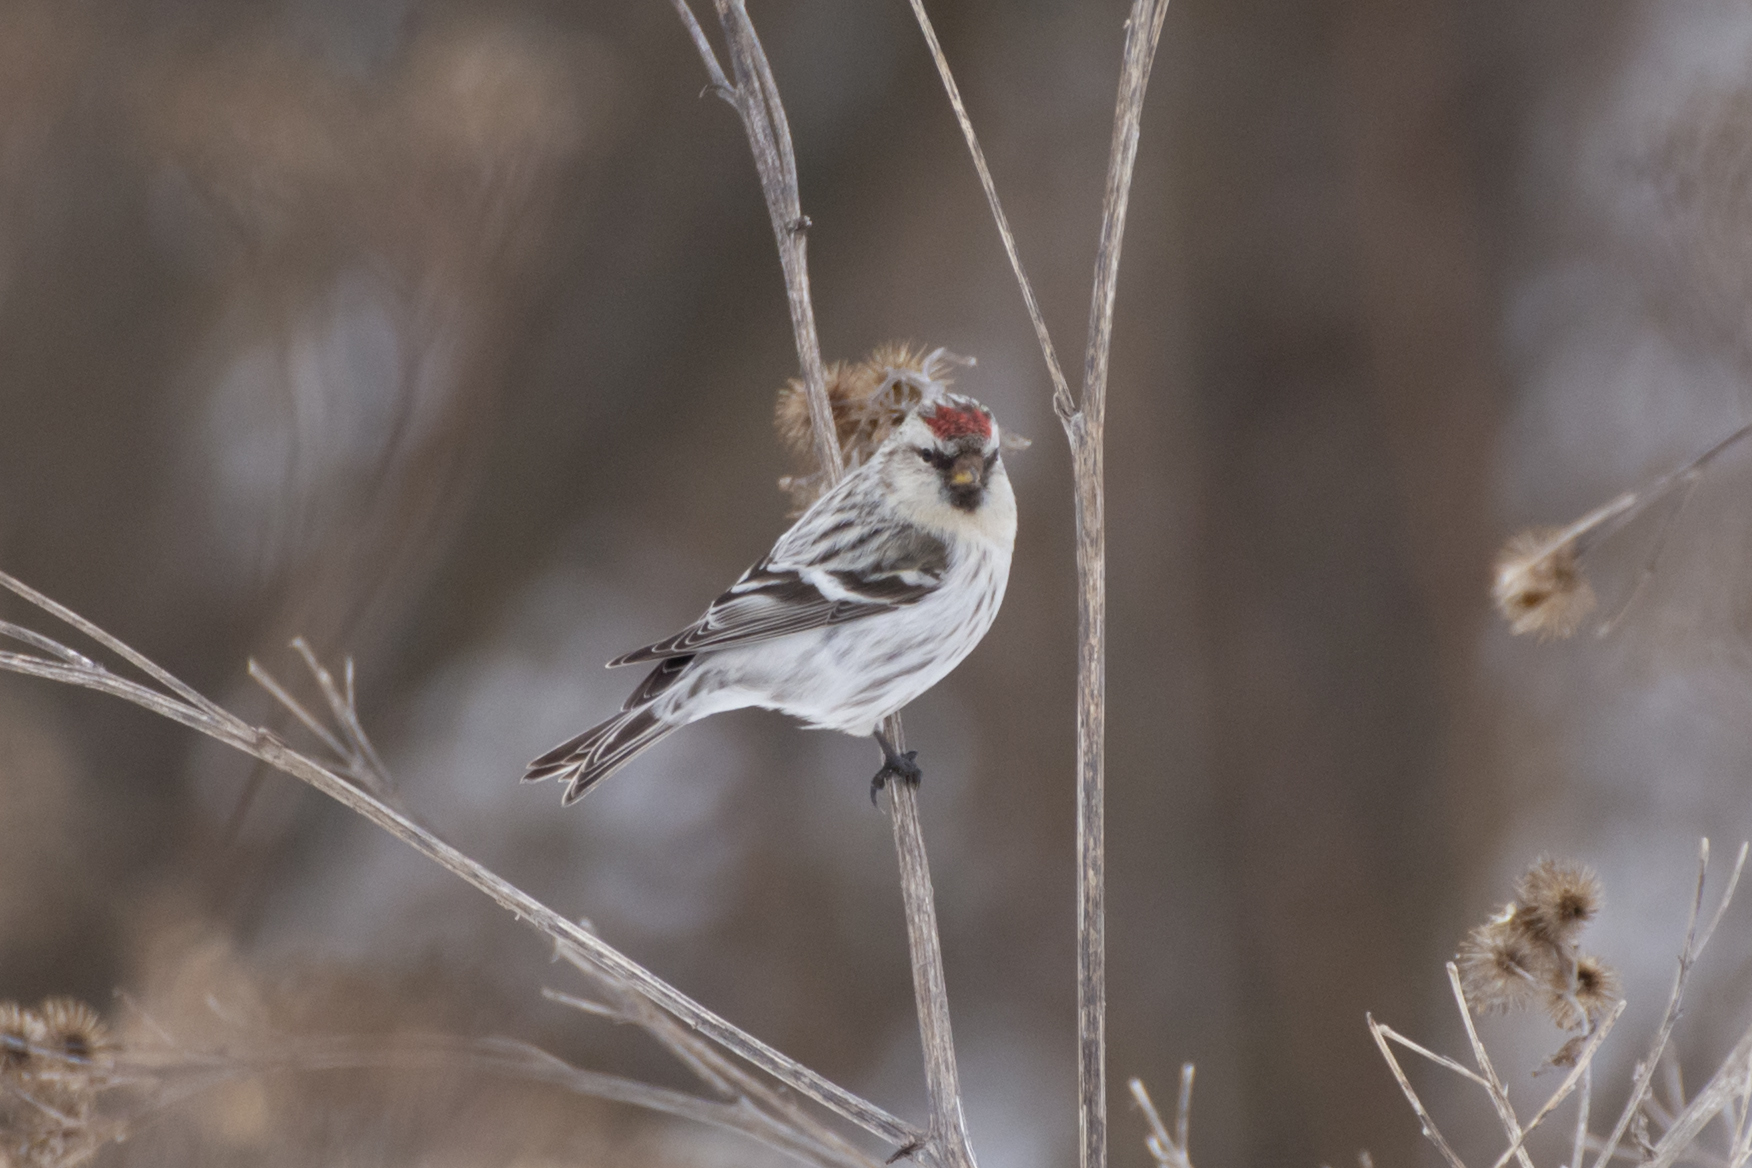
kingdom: Animalia
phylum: Chordata
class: Aves
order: Passeriformes
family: Fringillidae
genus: Acanthis
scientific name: Acanthis hornemanni
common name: Arctic redpoll
